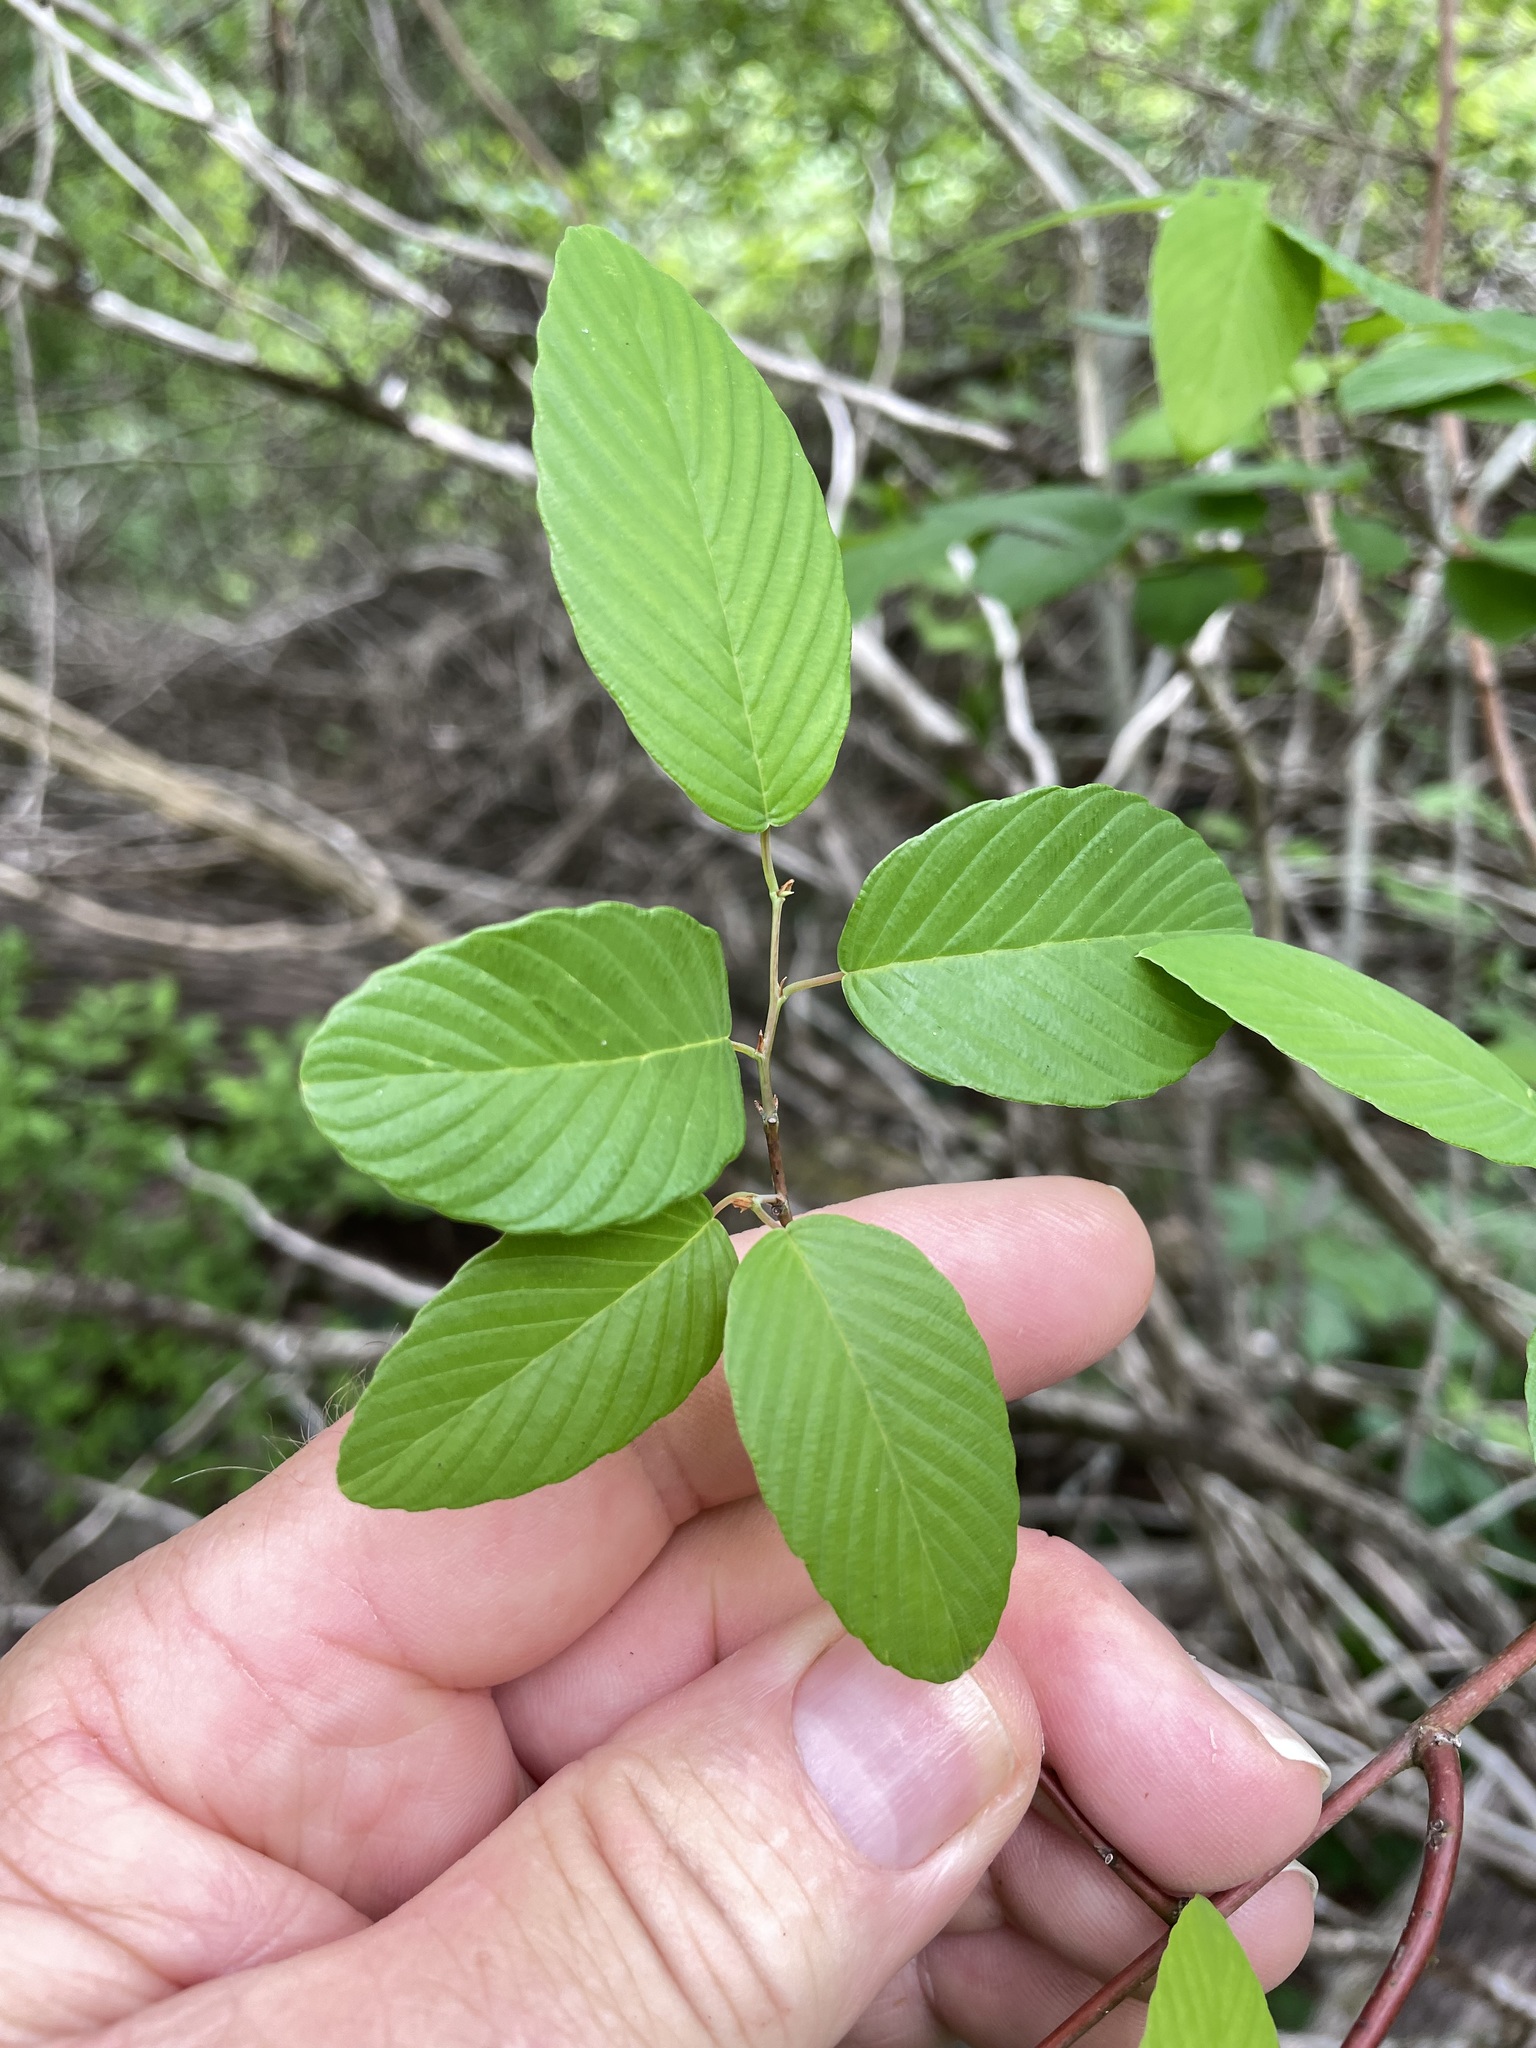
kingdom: Plantae
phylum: Tracheophyta
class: Magnoliopsida
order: Rosales
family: Rhamnaceae
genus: Berchemia
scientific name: Berchemia scandens
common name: Supplejack
